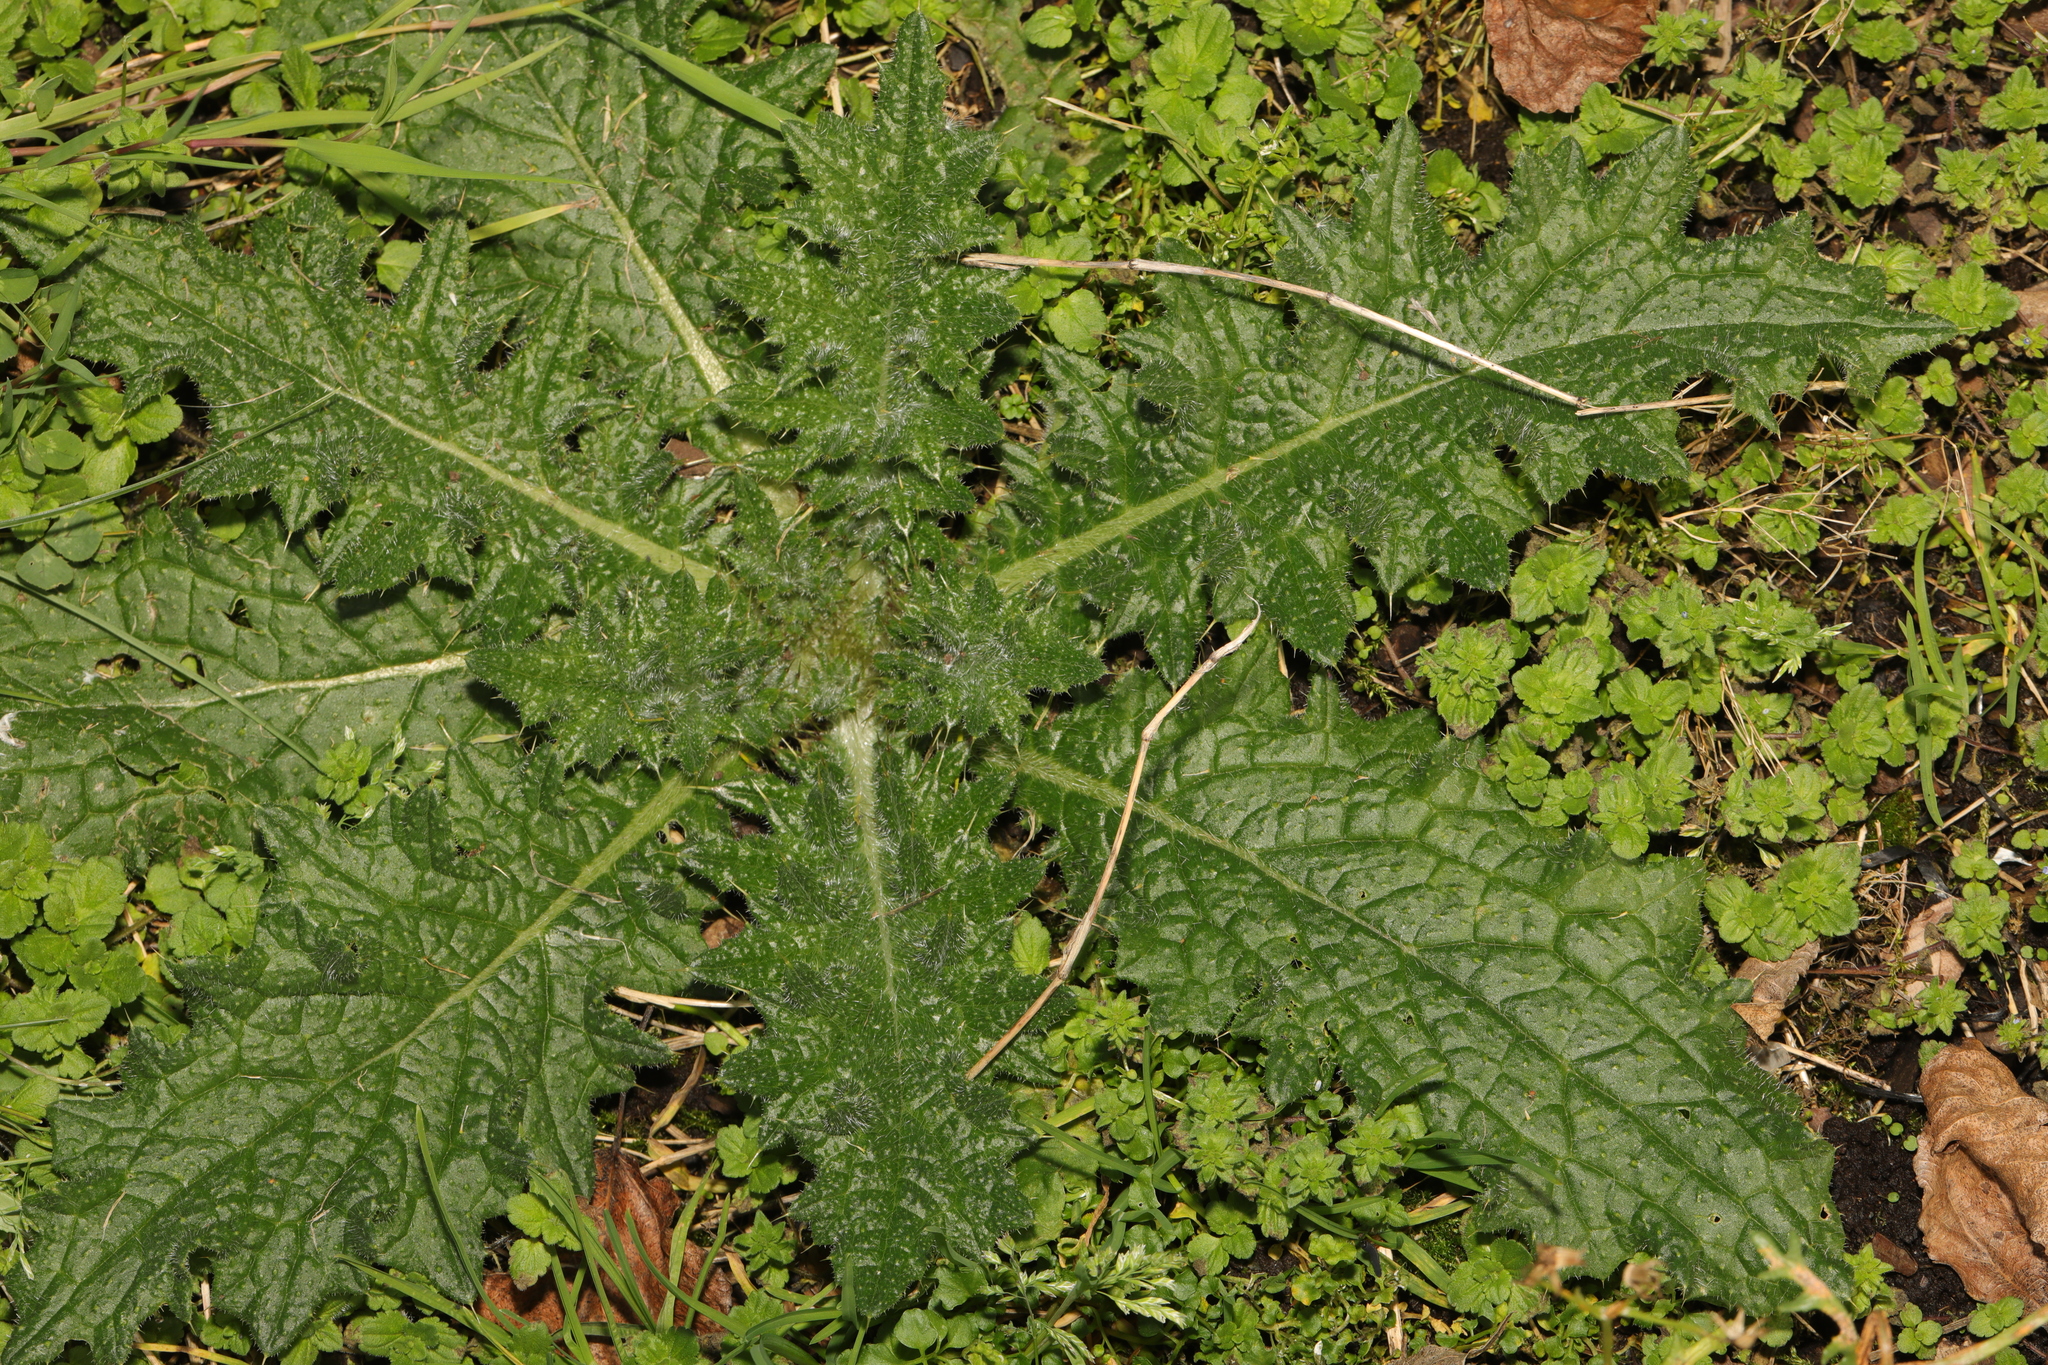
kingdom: Plantae
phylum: Tracheophyta
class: Magnoliopsida
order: Asterales
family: Asteraceae
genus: Cirsium
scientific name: Cirsium vulgare
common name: Bull thistle
